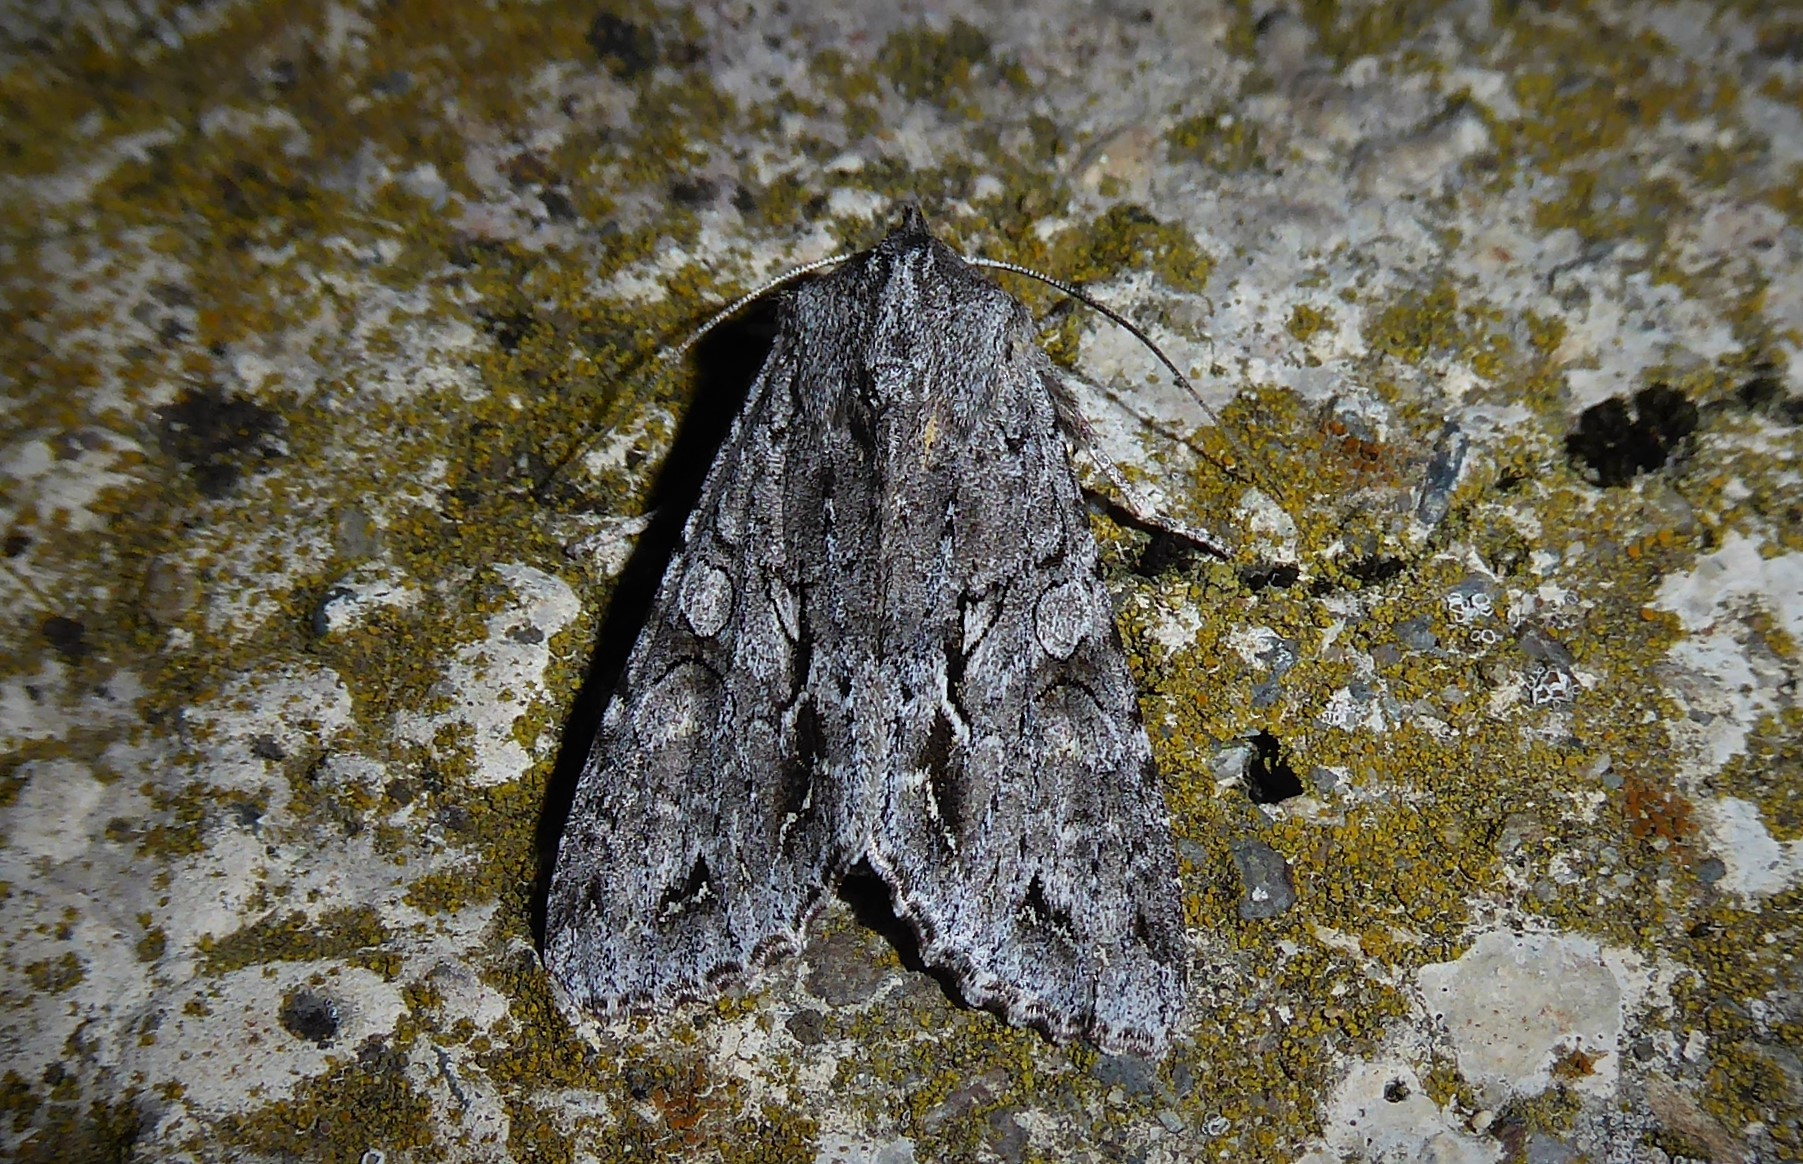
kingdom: Animalia
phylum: Arthropoda
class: Insecta
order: Lepidoptera
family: Noctuidae
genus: Ichneutica
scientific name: Ichneutica
